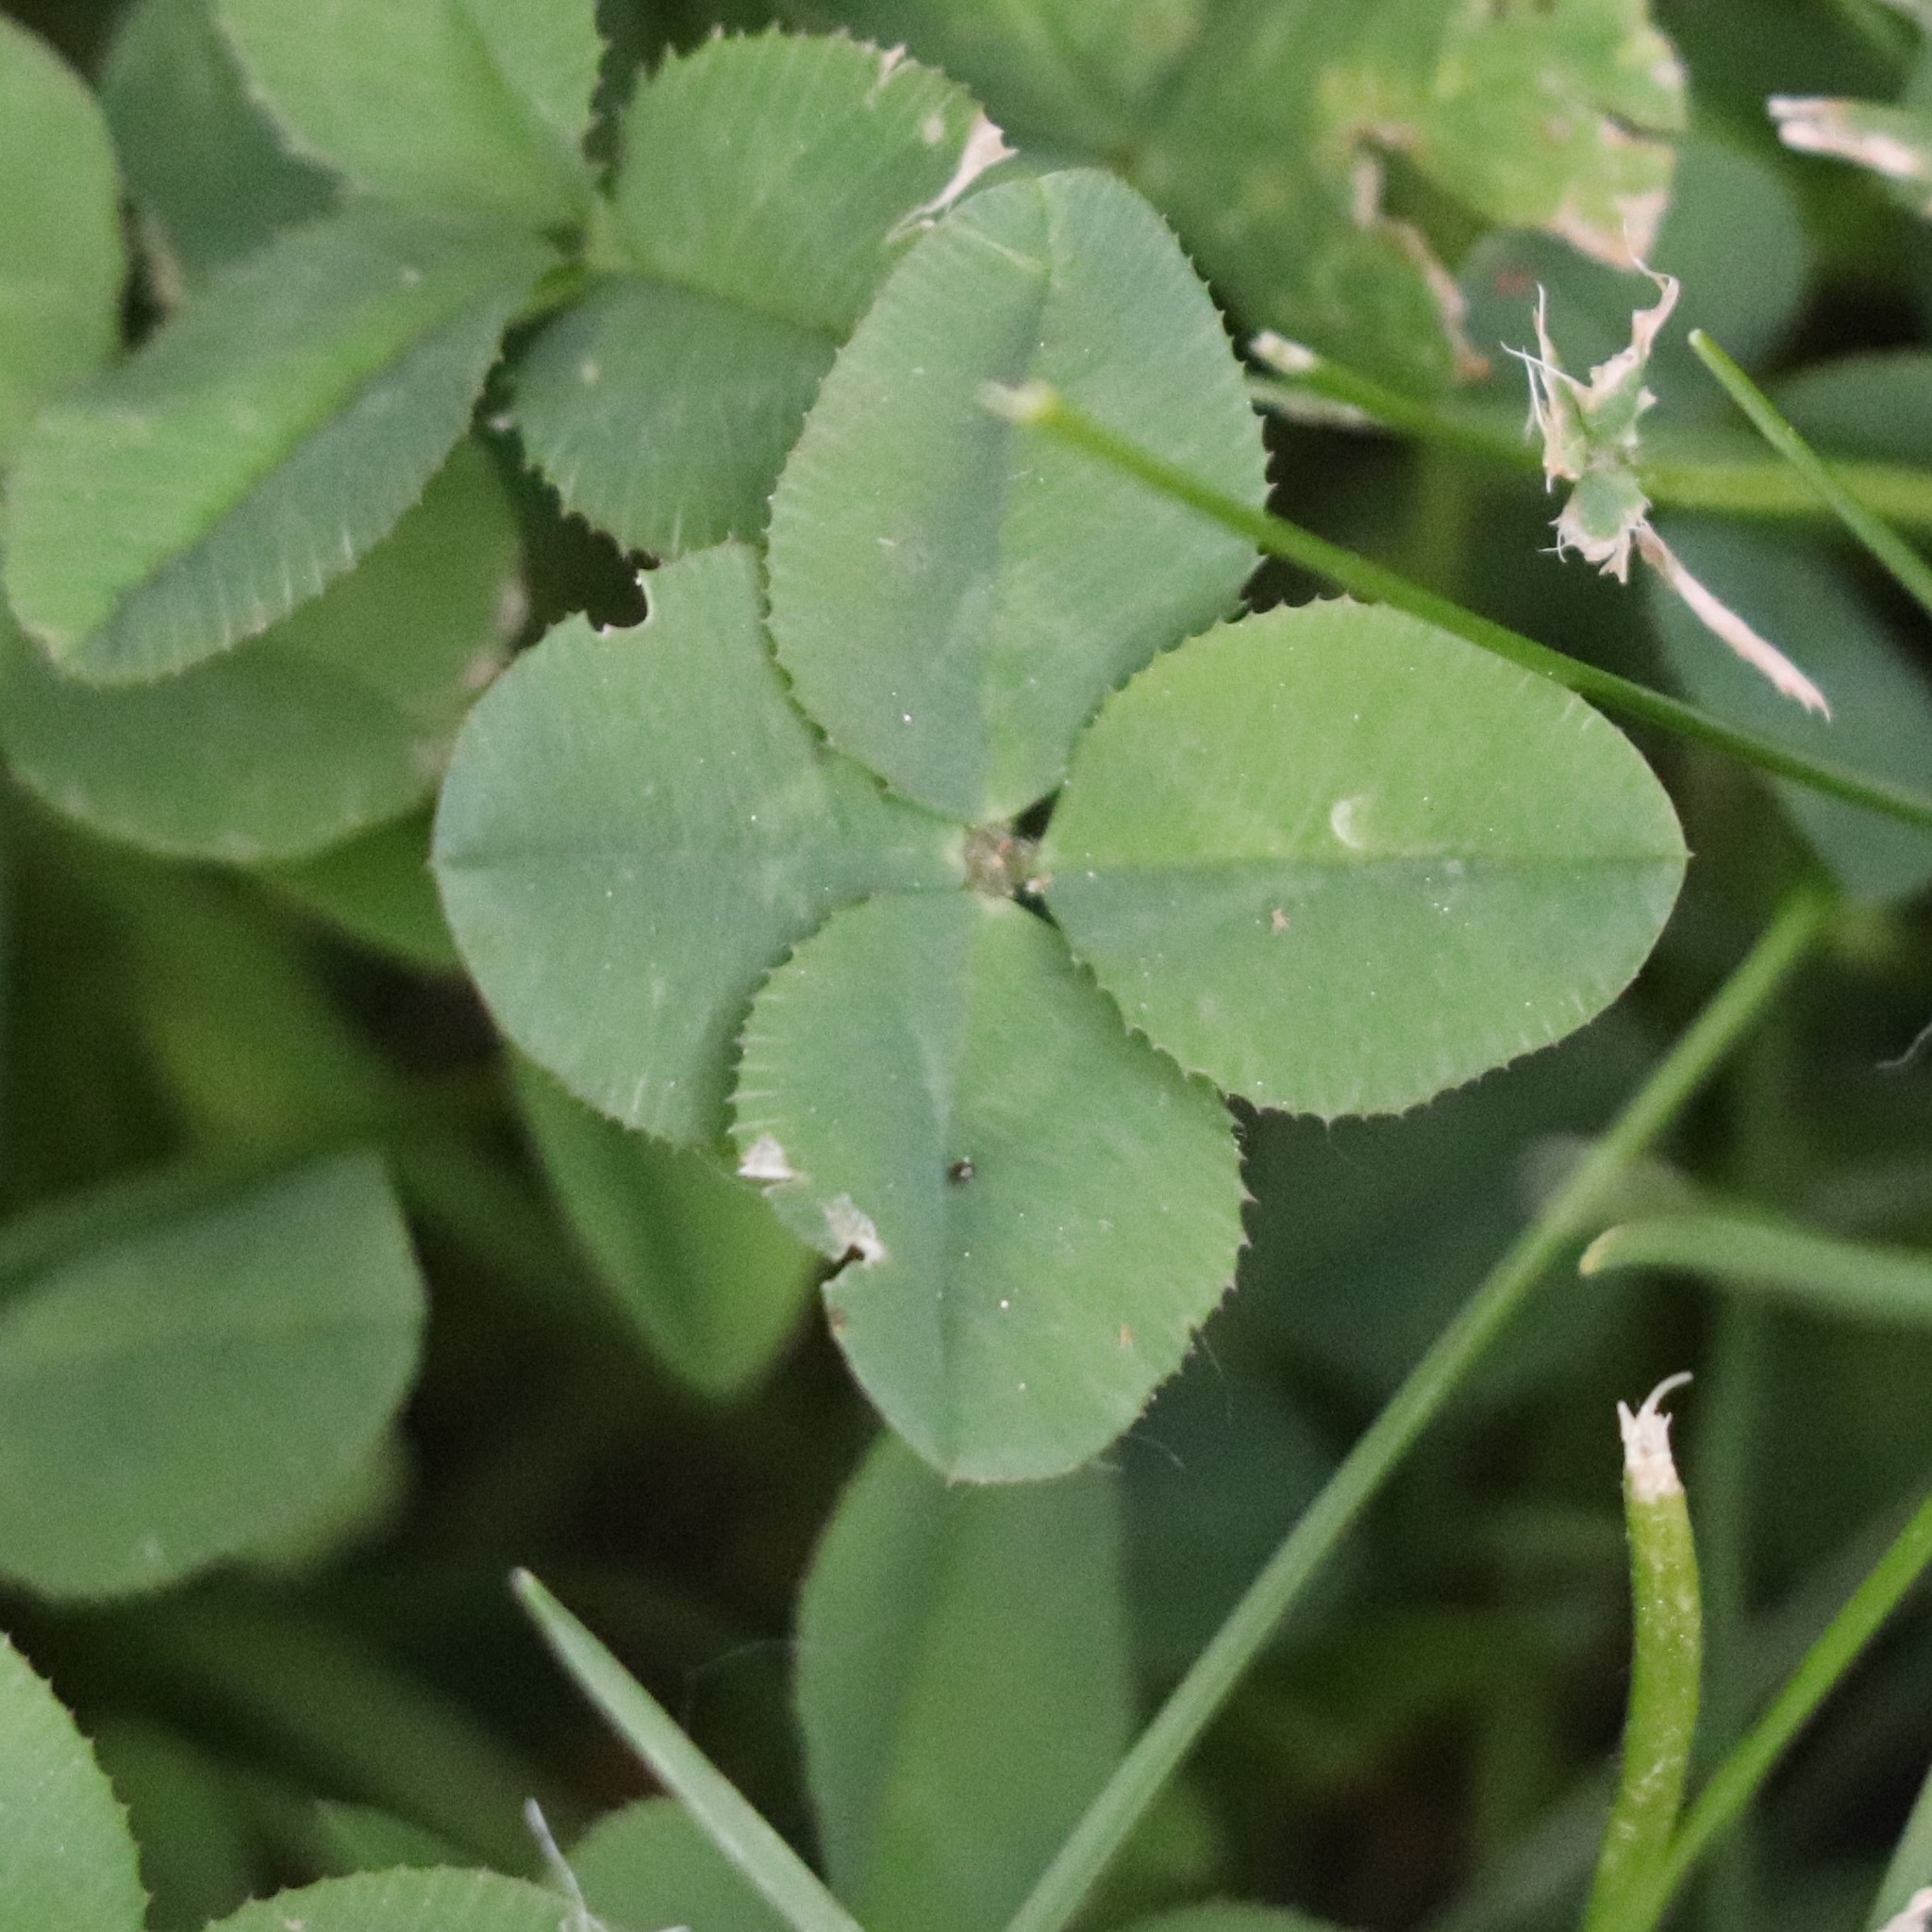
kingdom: Plantae
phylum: Tracheophyta
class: Magnoliopsida
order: Fabales
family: Fabaceae
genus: Trifolium
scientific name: Trifolium repens
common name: White clover
